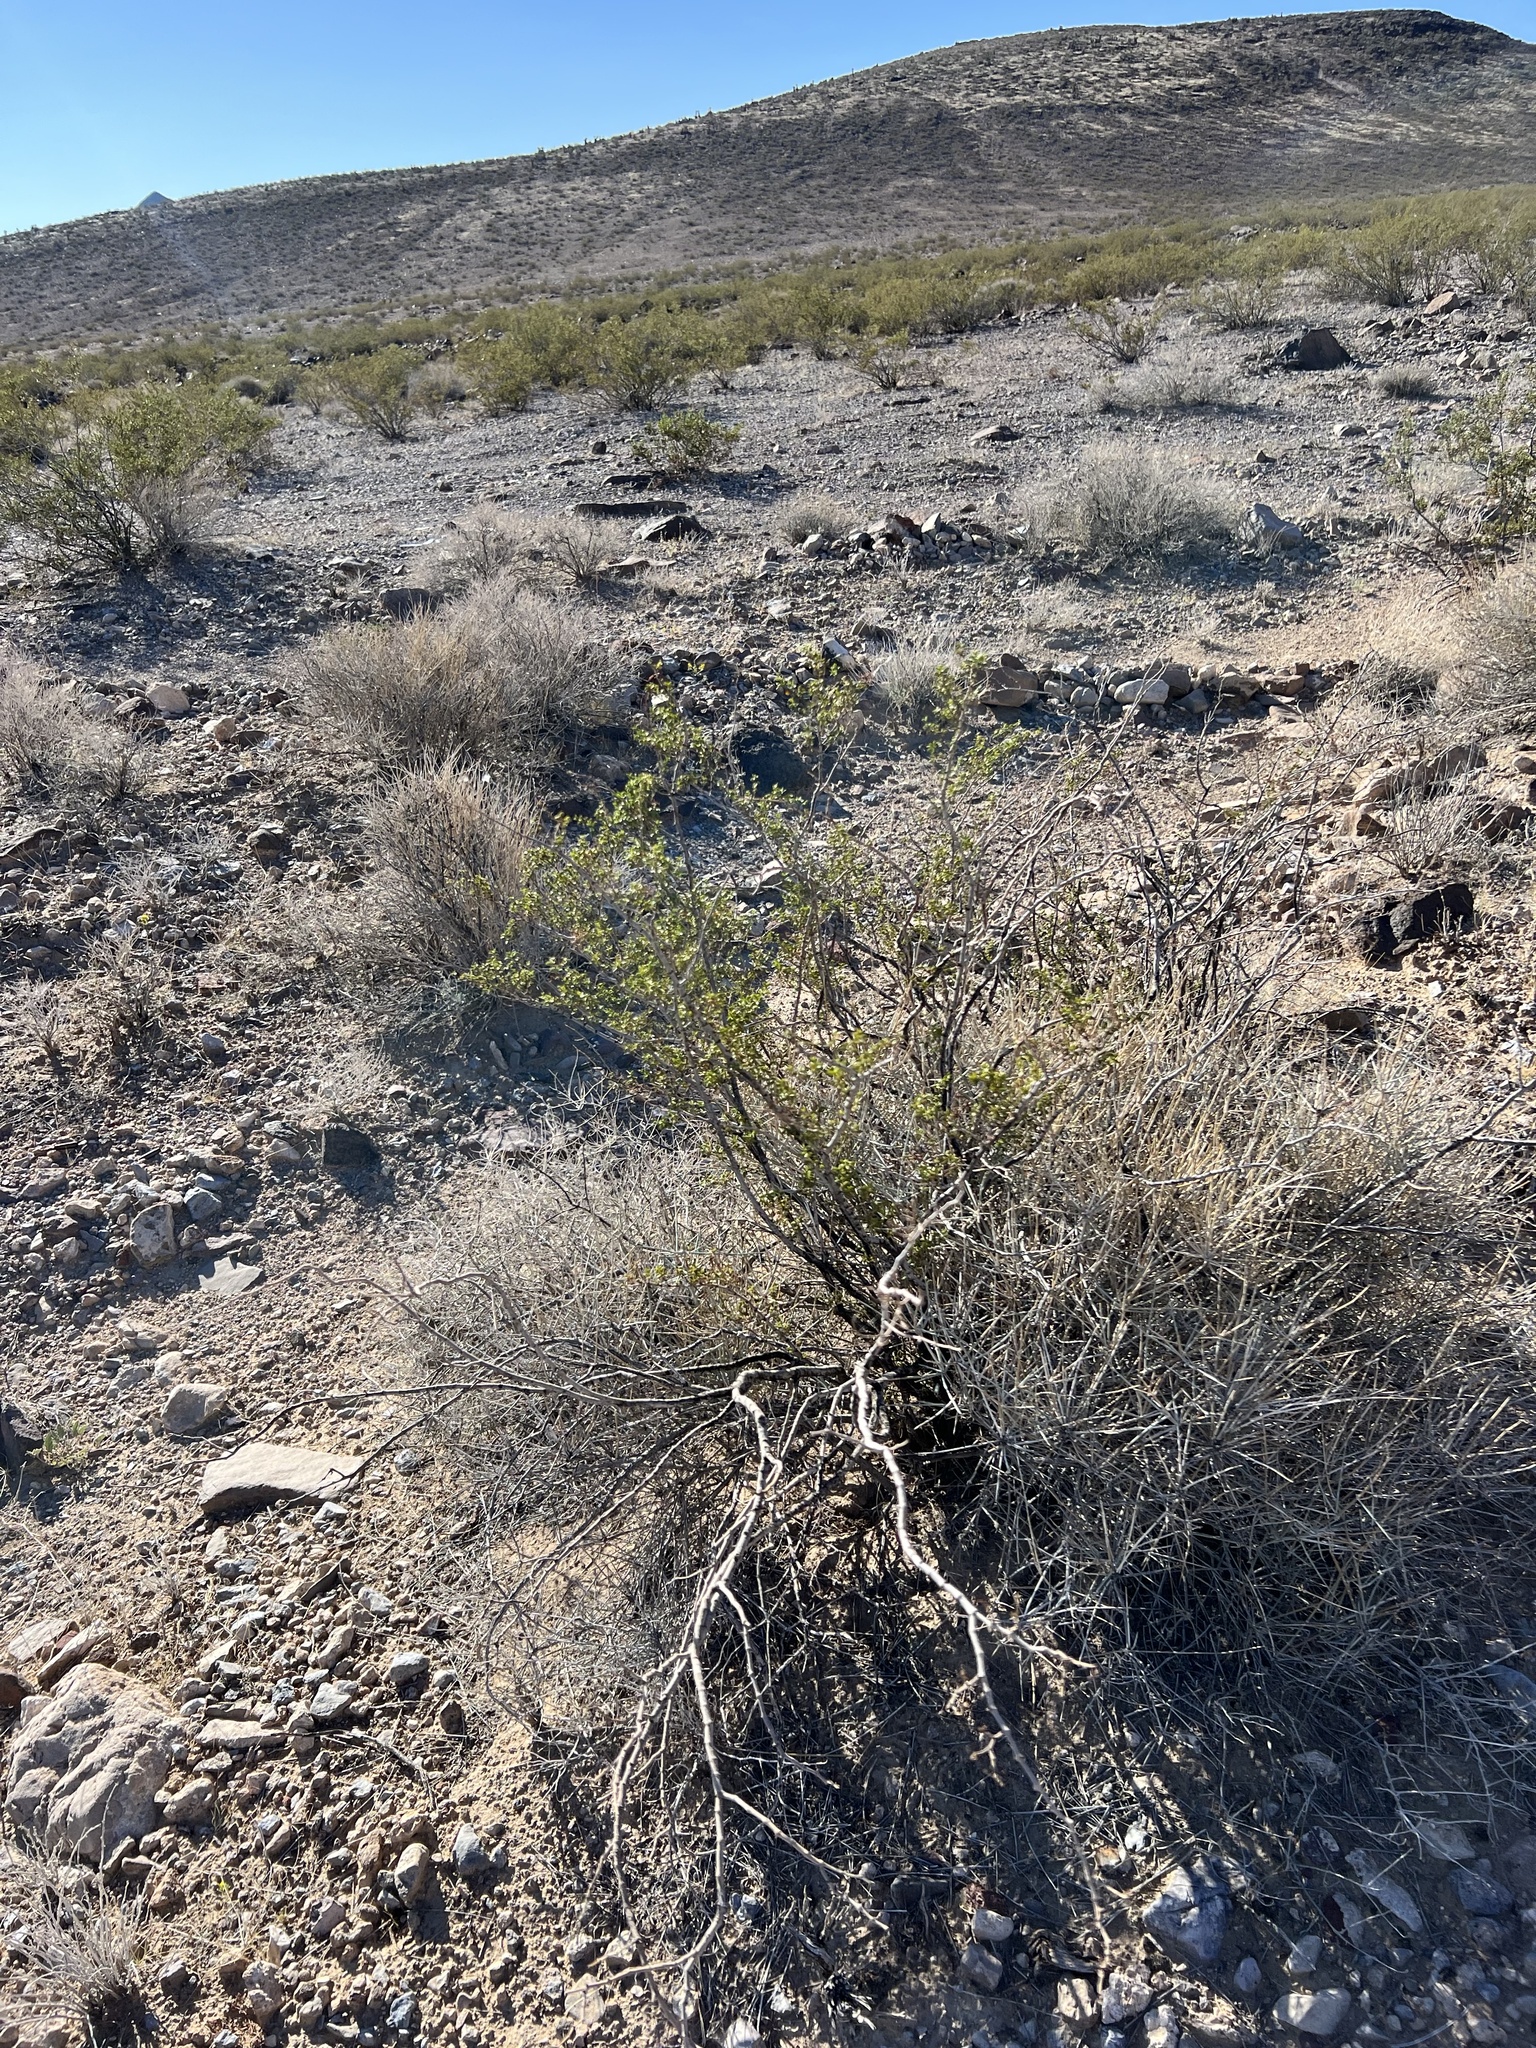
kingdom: Plantae
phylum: Tracheophyta
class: Magnoliopsida
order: Zygophyllales
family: Zygophyllaceae
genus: Larrea
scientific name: Larrea tridentata
